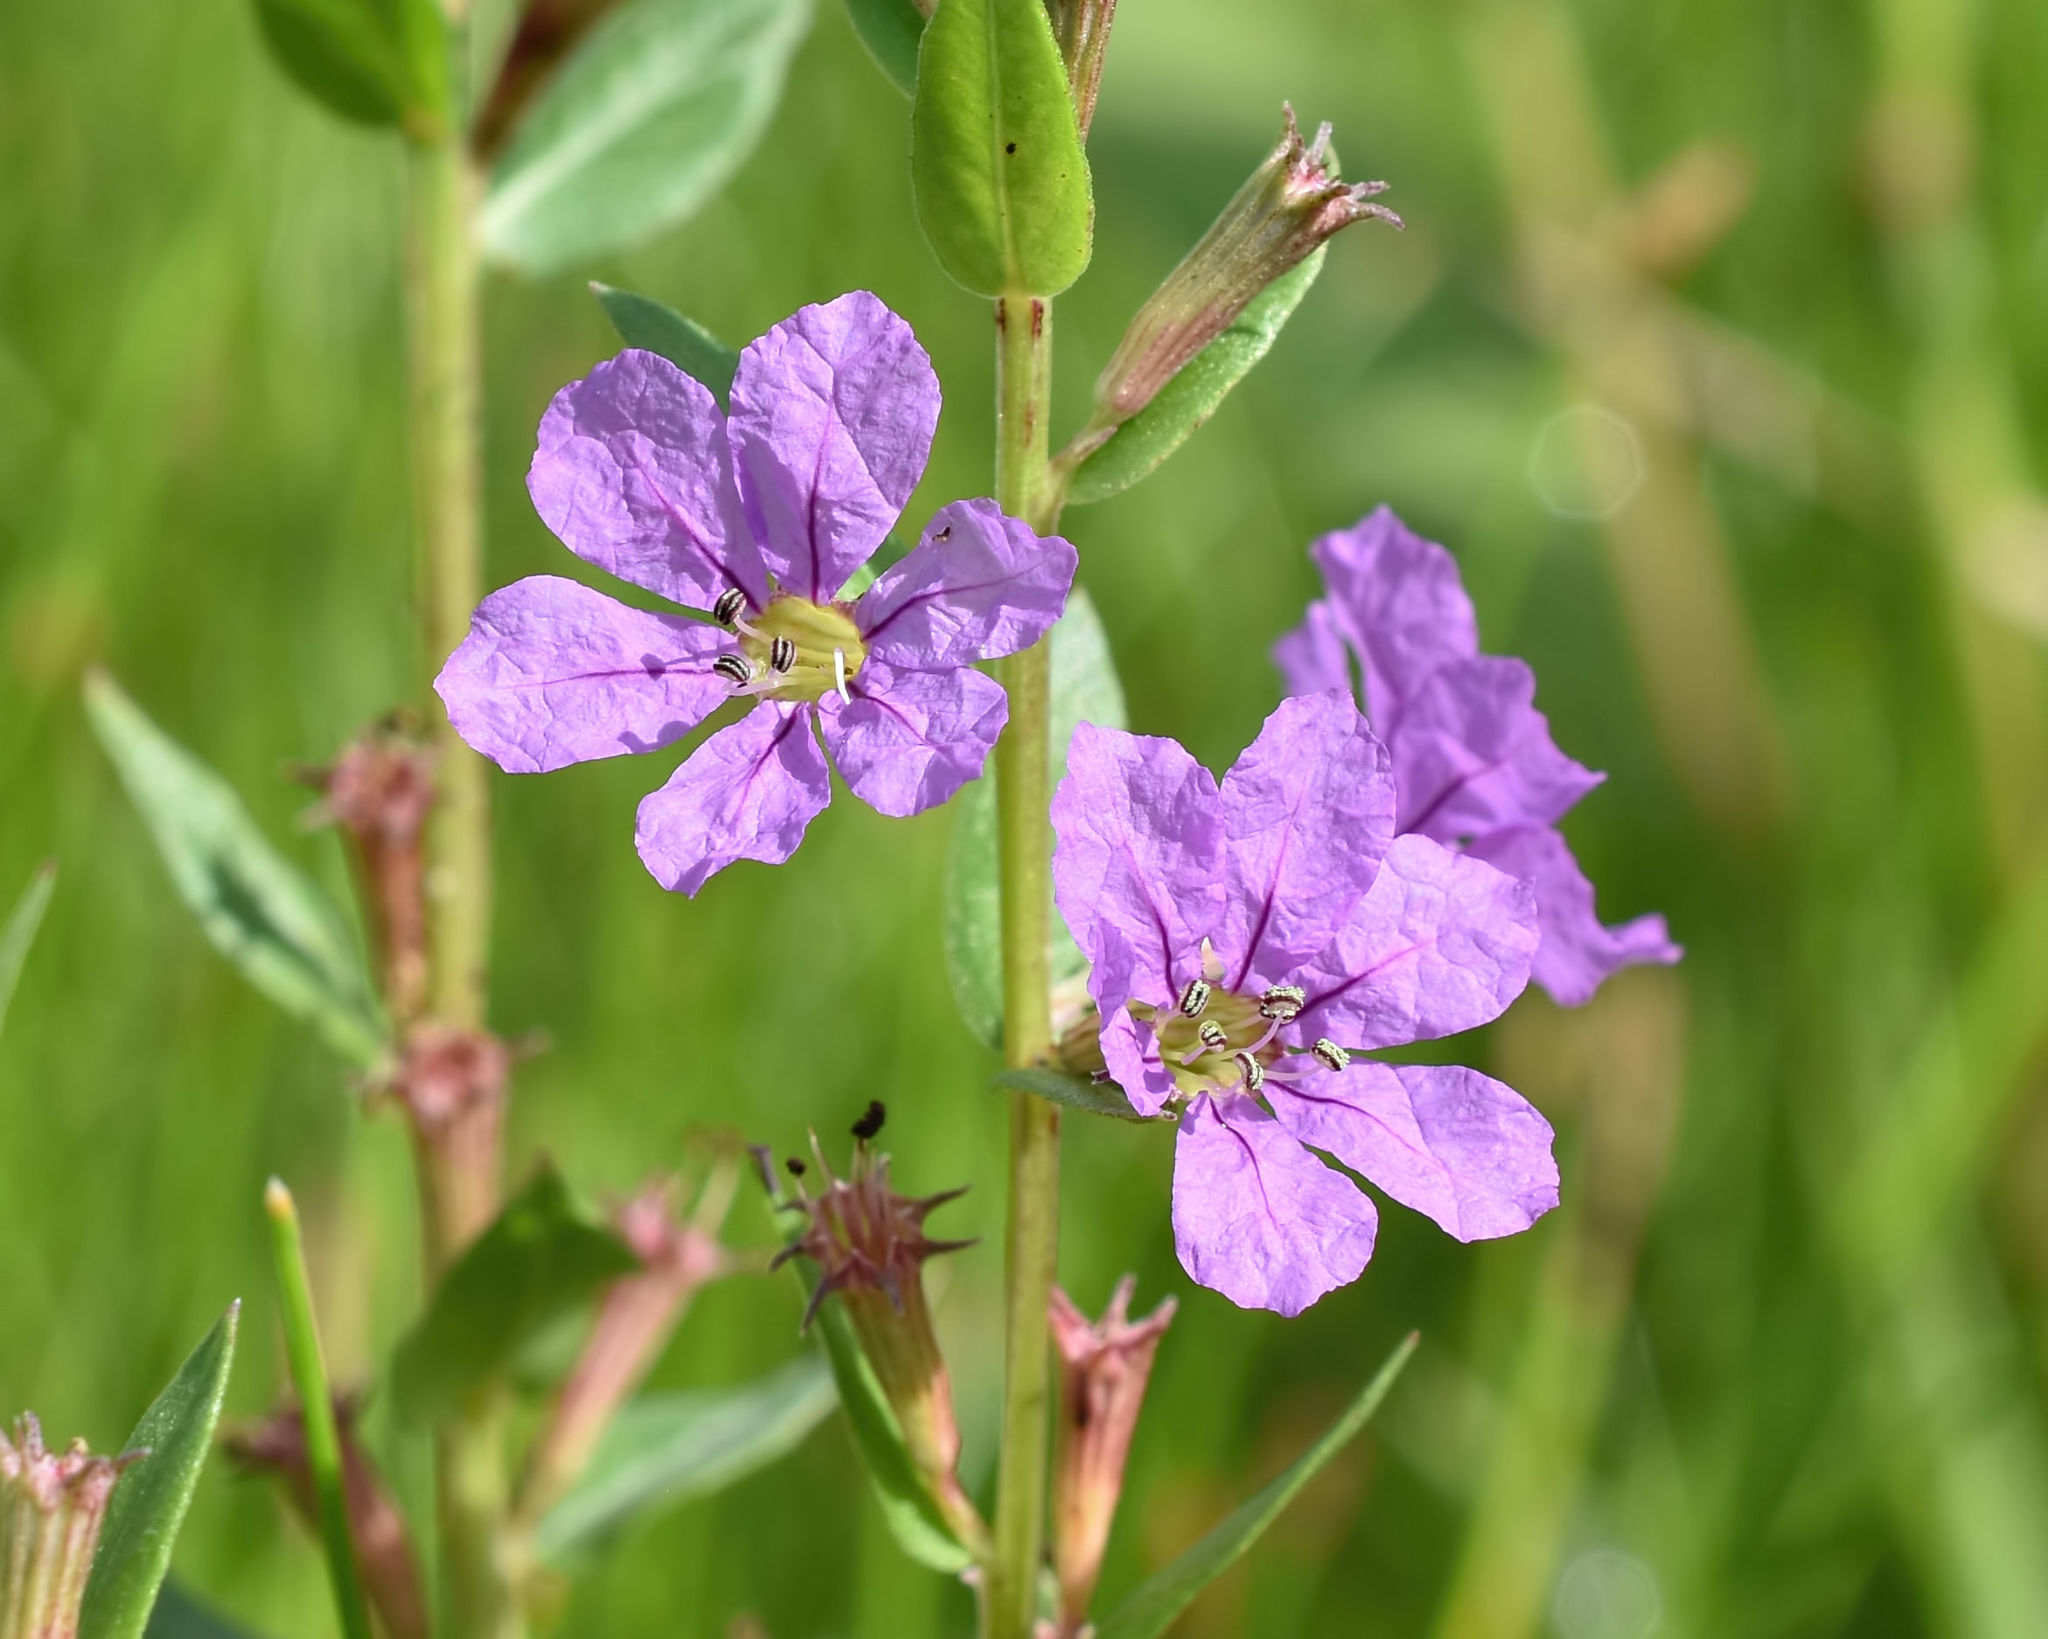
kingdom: Plantae
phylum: Tracheophyta
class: Magnoliopsida
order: Myrtales
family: Lythraceae
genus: Lythrum
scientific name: Lythrum alatum
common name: Winged loosestrife
